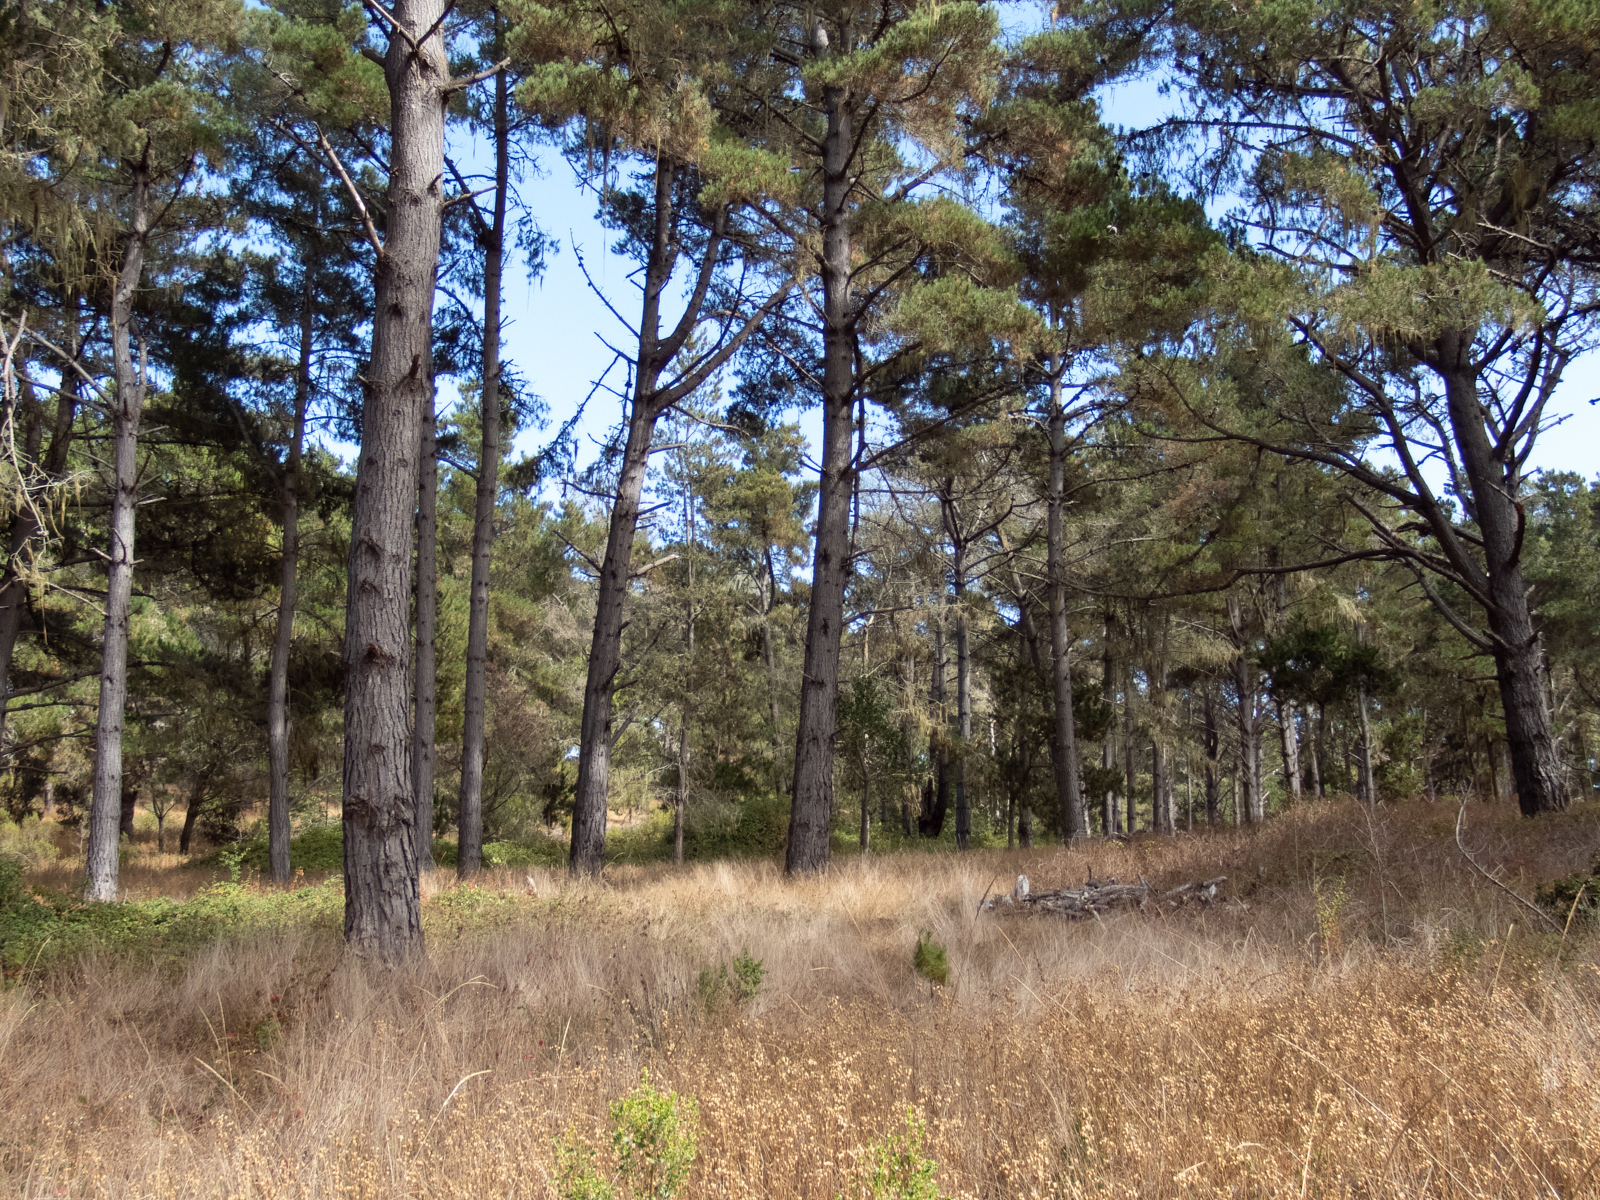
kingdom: Plantae
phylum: Tracheophyta
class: Pinopsida
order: Pinales
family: Pinaceae
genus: Pinus
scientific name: Pinus radiata
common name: Monterey pine
